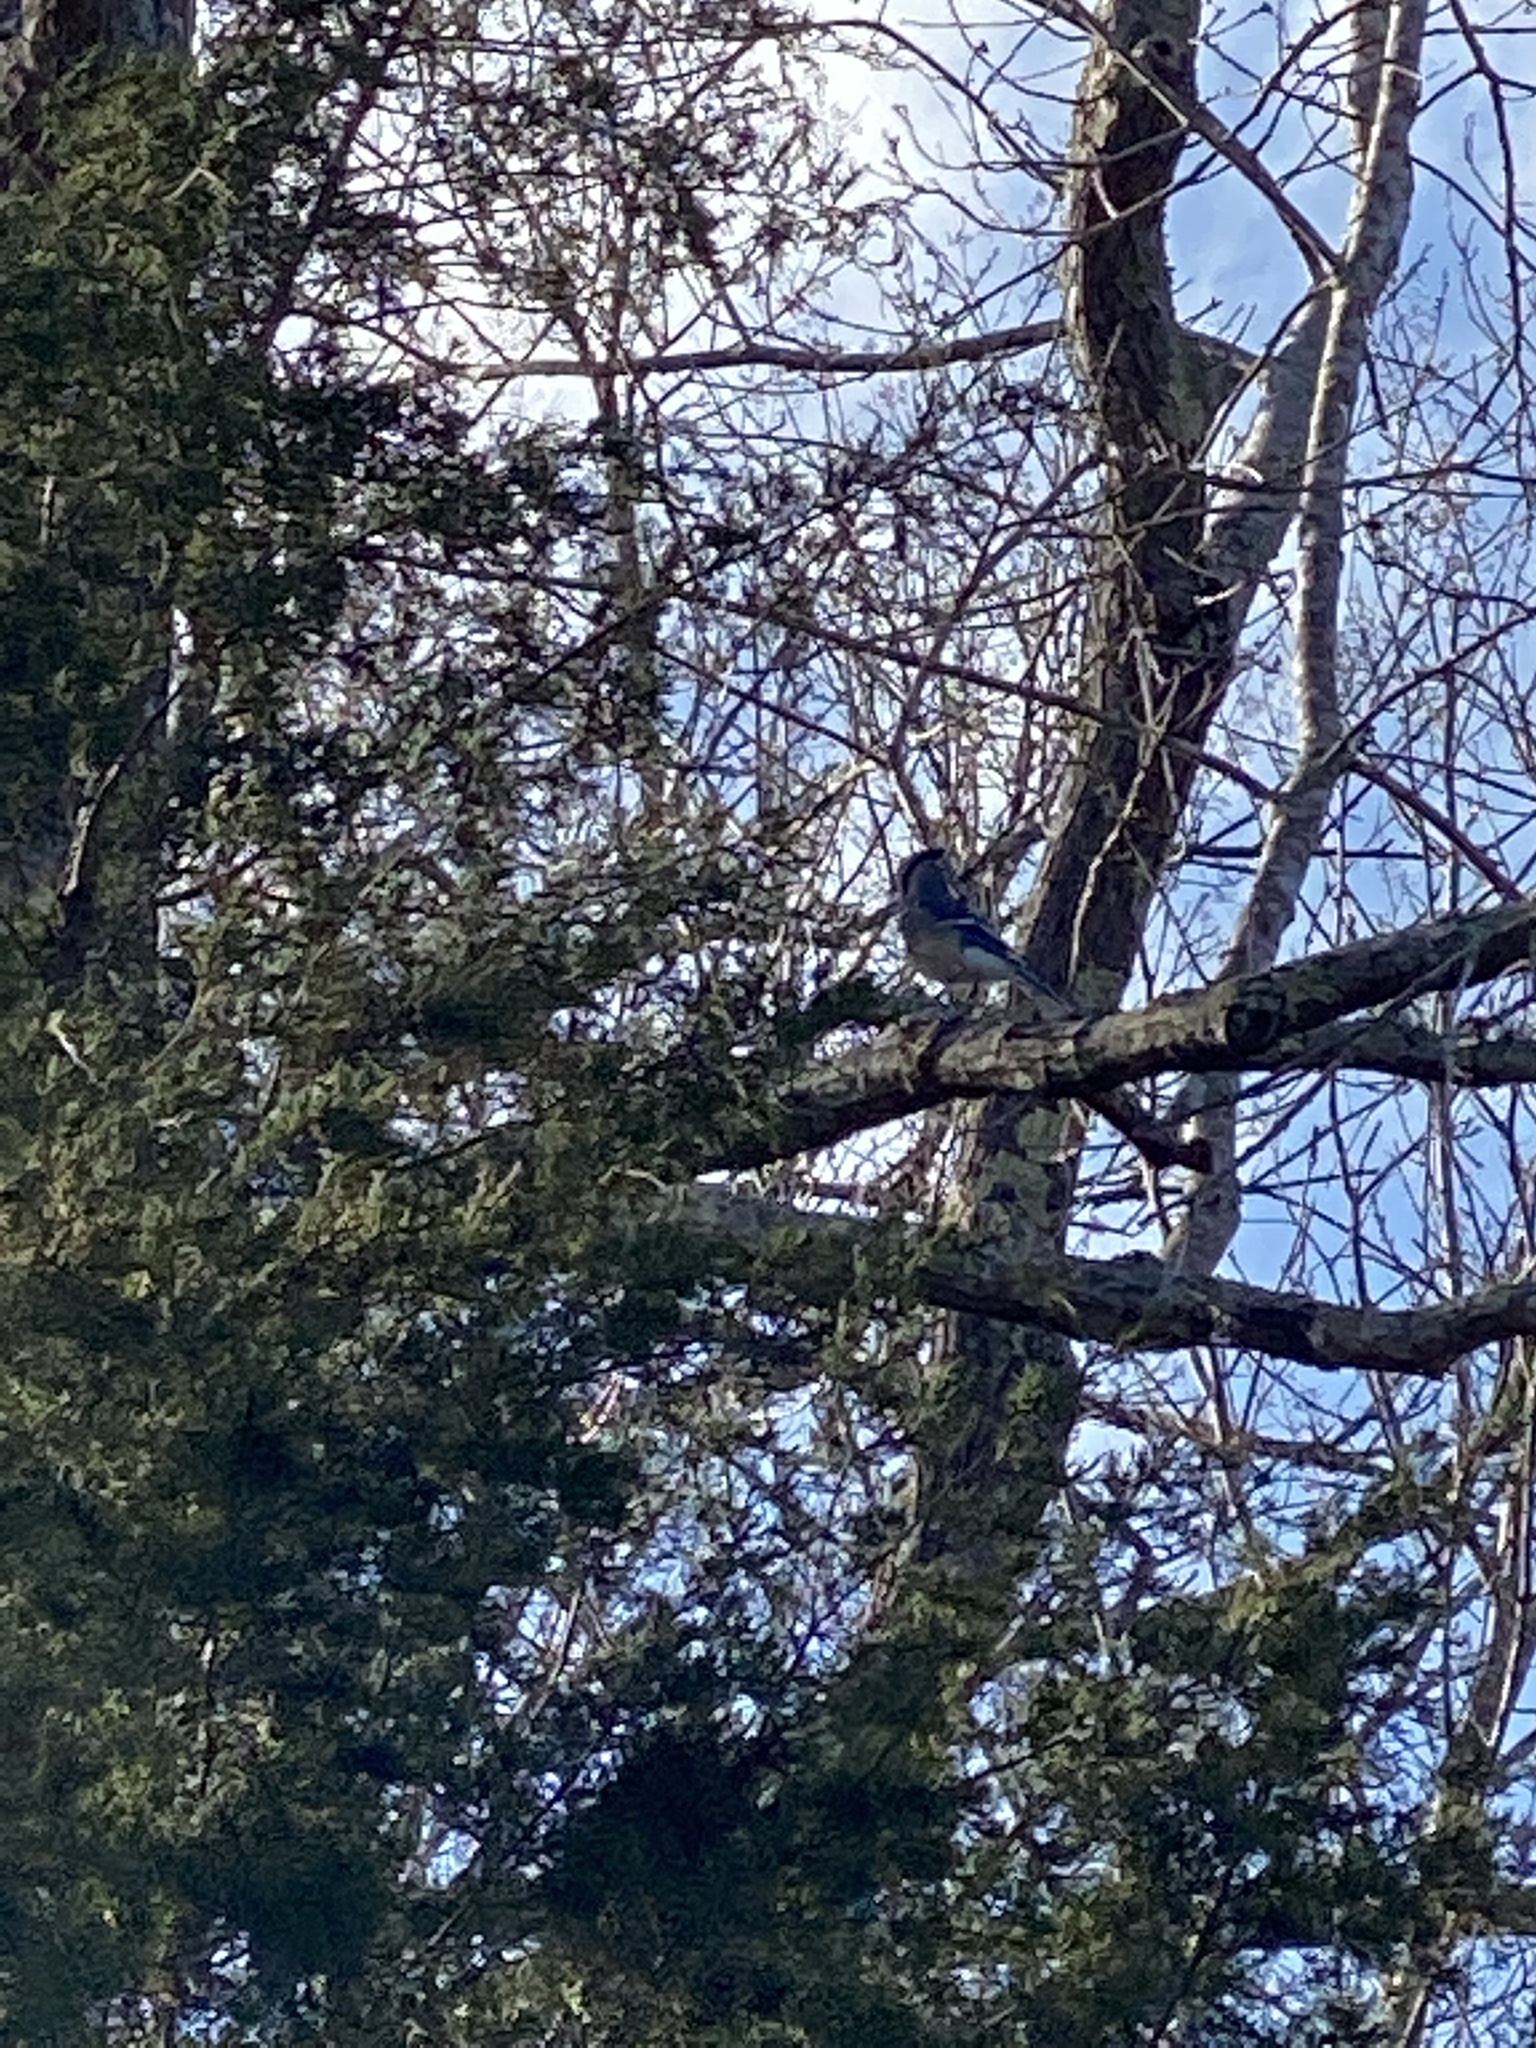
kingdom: Animalia
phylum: Chordata
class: Aves
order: Passeriformes
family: Corvidae
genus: Cyanocitta
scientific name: Cyanocitta cristata
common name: Blue jay
